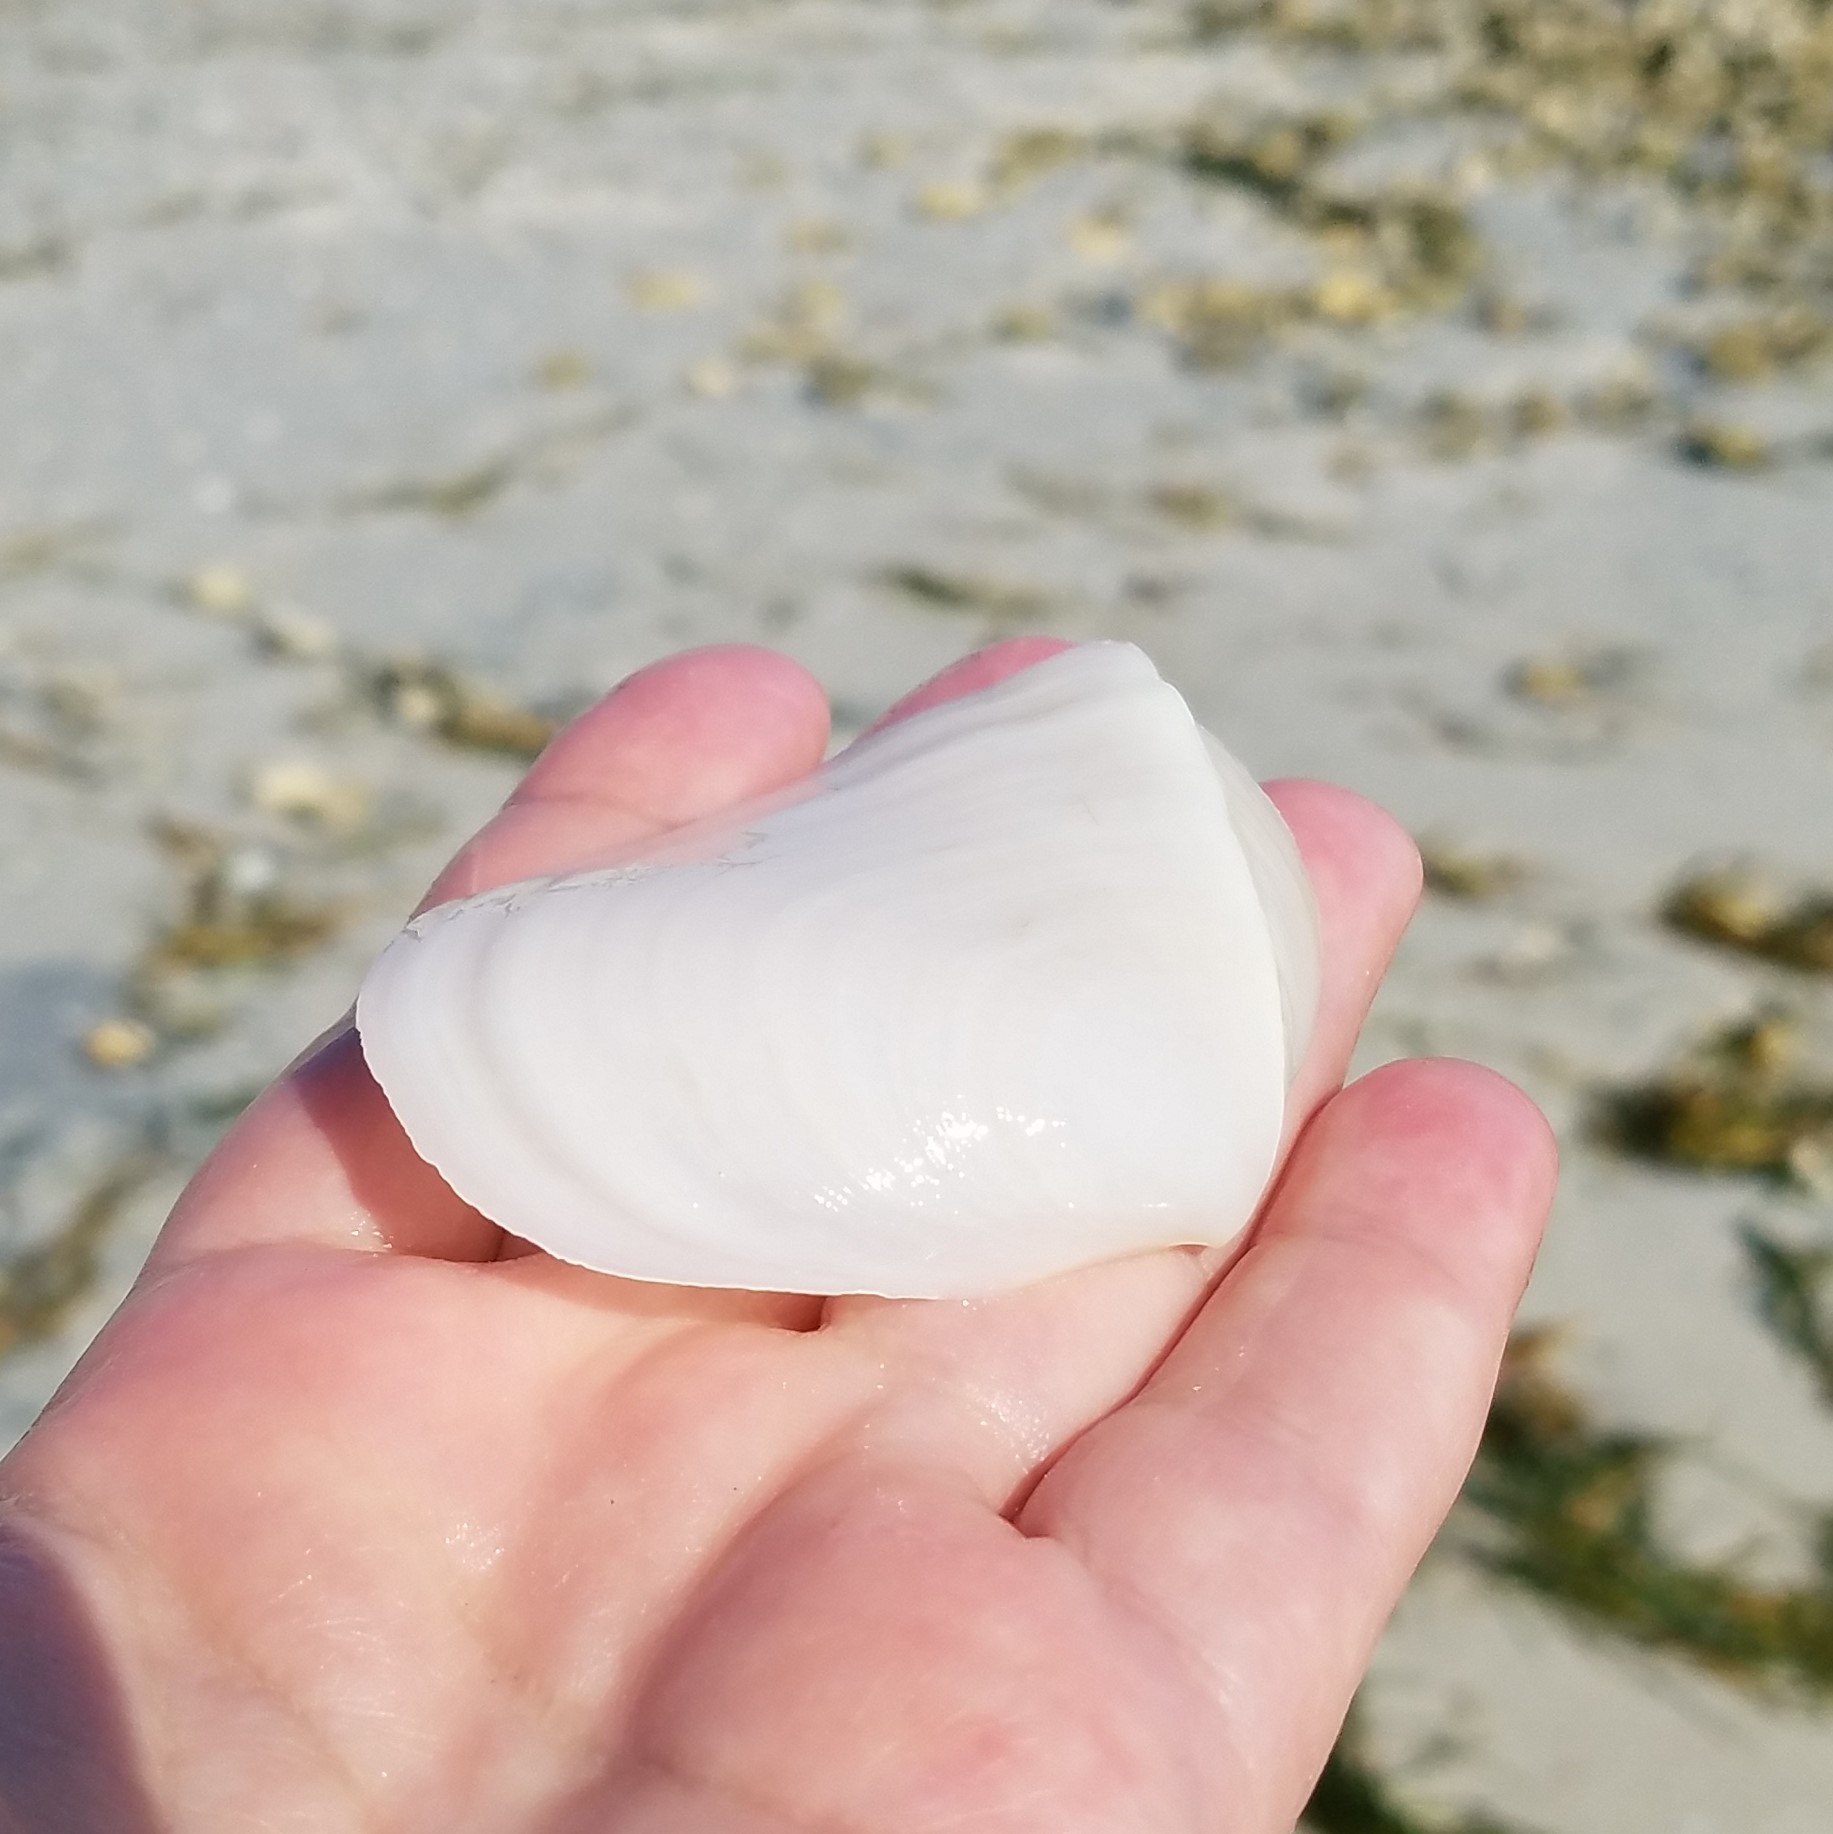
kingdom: Animalia
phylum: Mollusca
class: Bivalvia
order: Cardiida
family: Tellinidae
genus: Leporimetis
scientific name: Leporimetis ephippium
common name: Twisted duck clam
